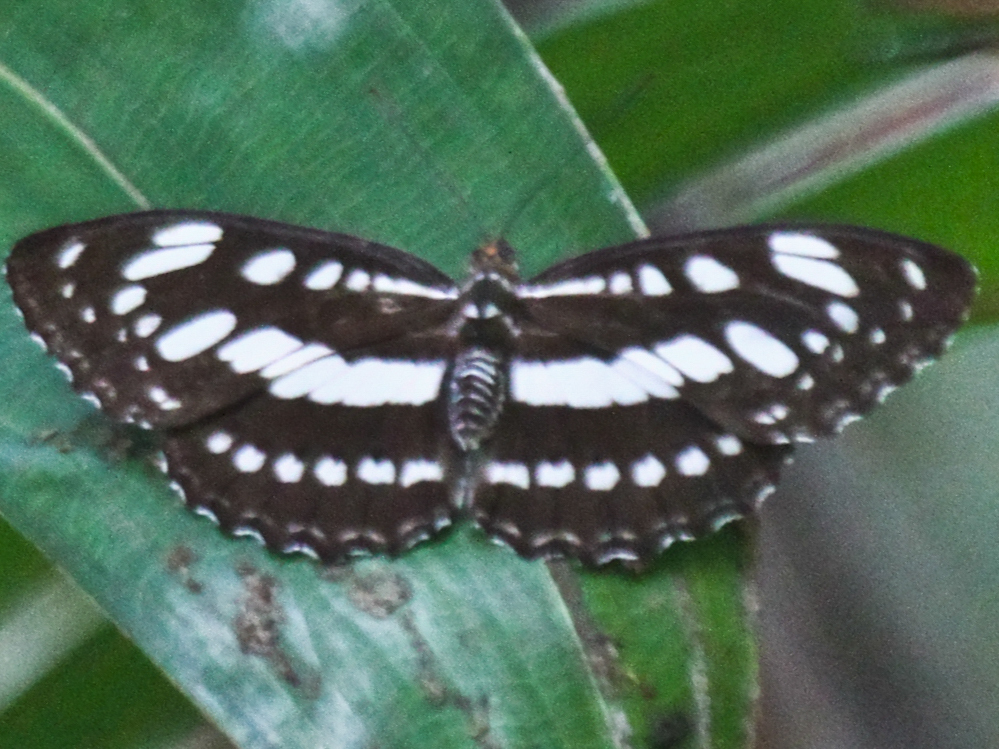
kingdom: Animalia
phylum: Arthropoda
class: Insecta
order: Lepidoptera
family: Nymphalidae
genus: Parathyma
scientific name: Parathyma perius
